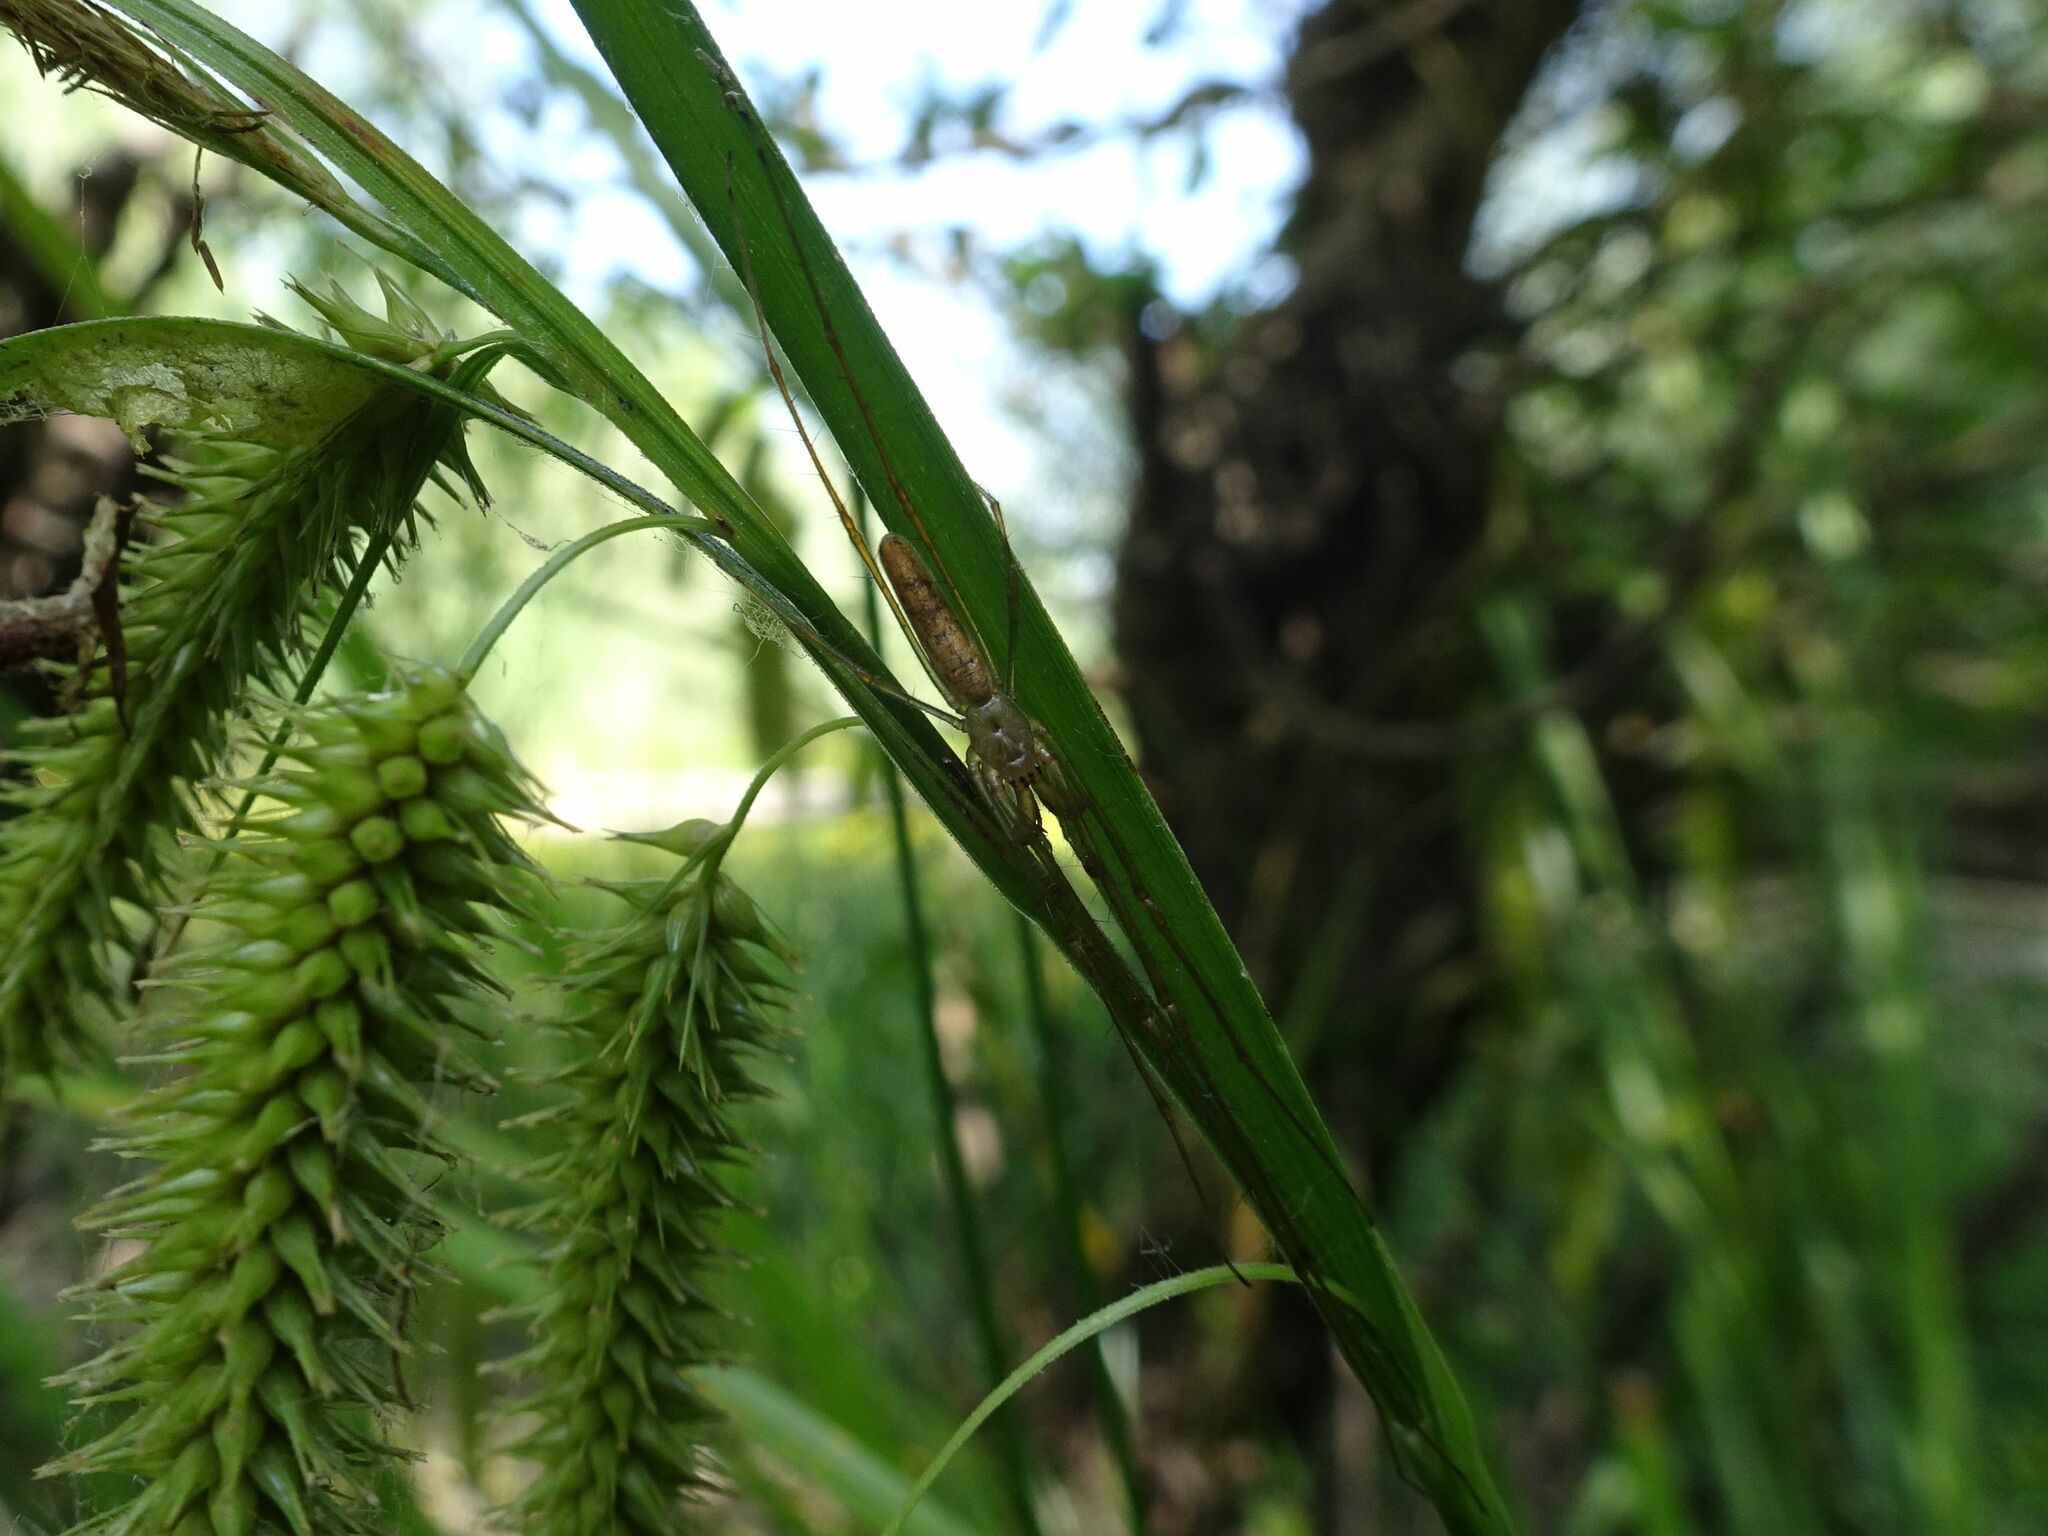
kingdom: Animalia
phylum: Arthropoda
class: Arachnida
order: Araneae
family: Tetragnathidae
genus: Tetragnatha
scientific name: Tetragnatha
